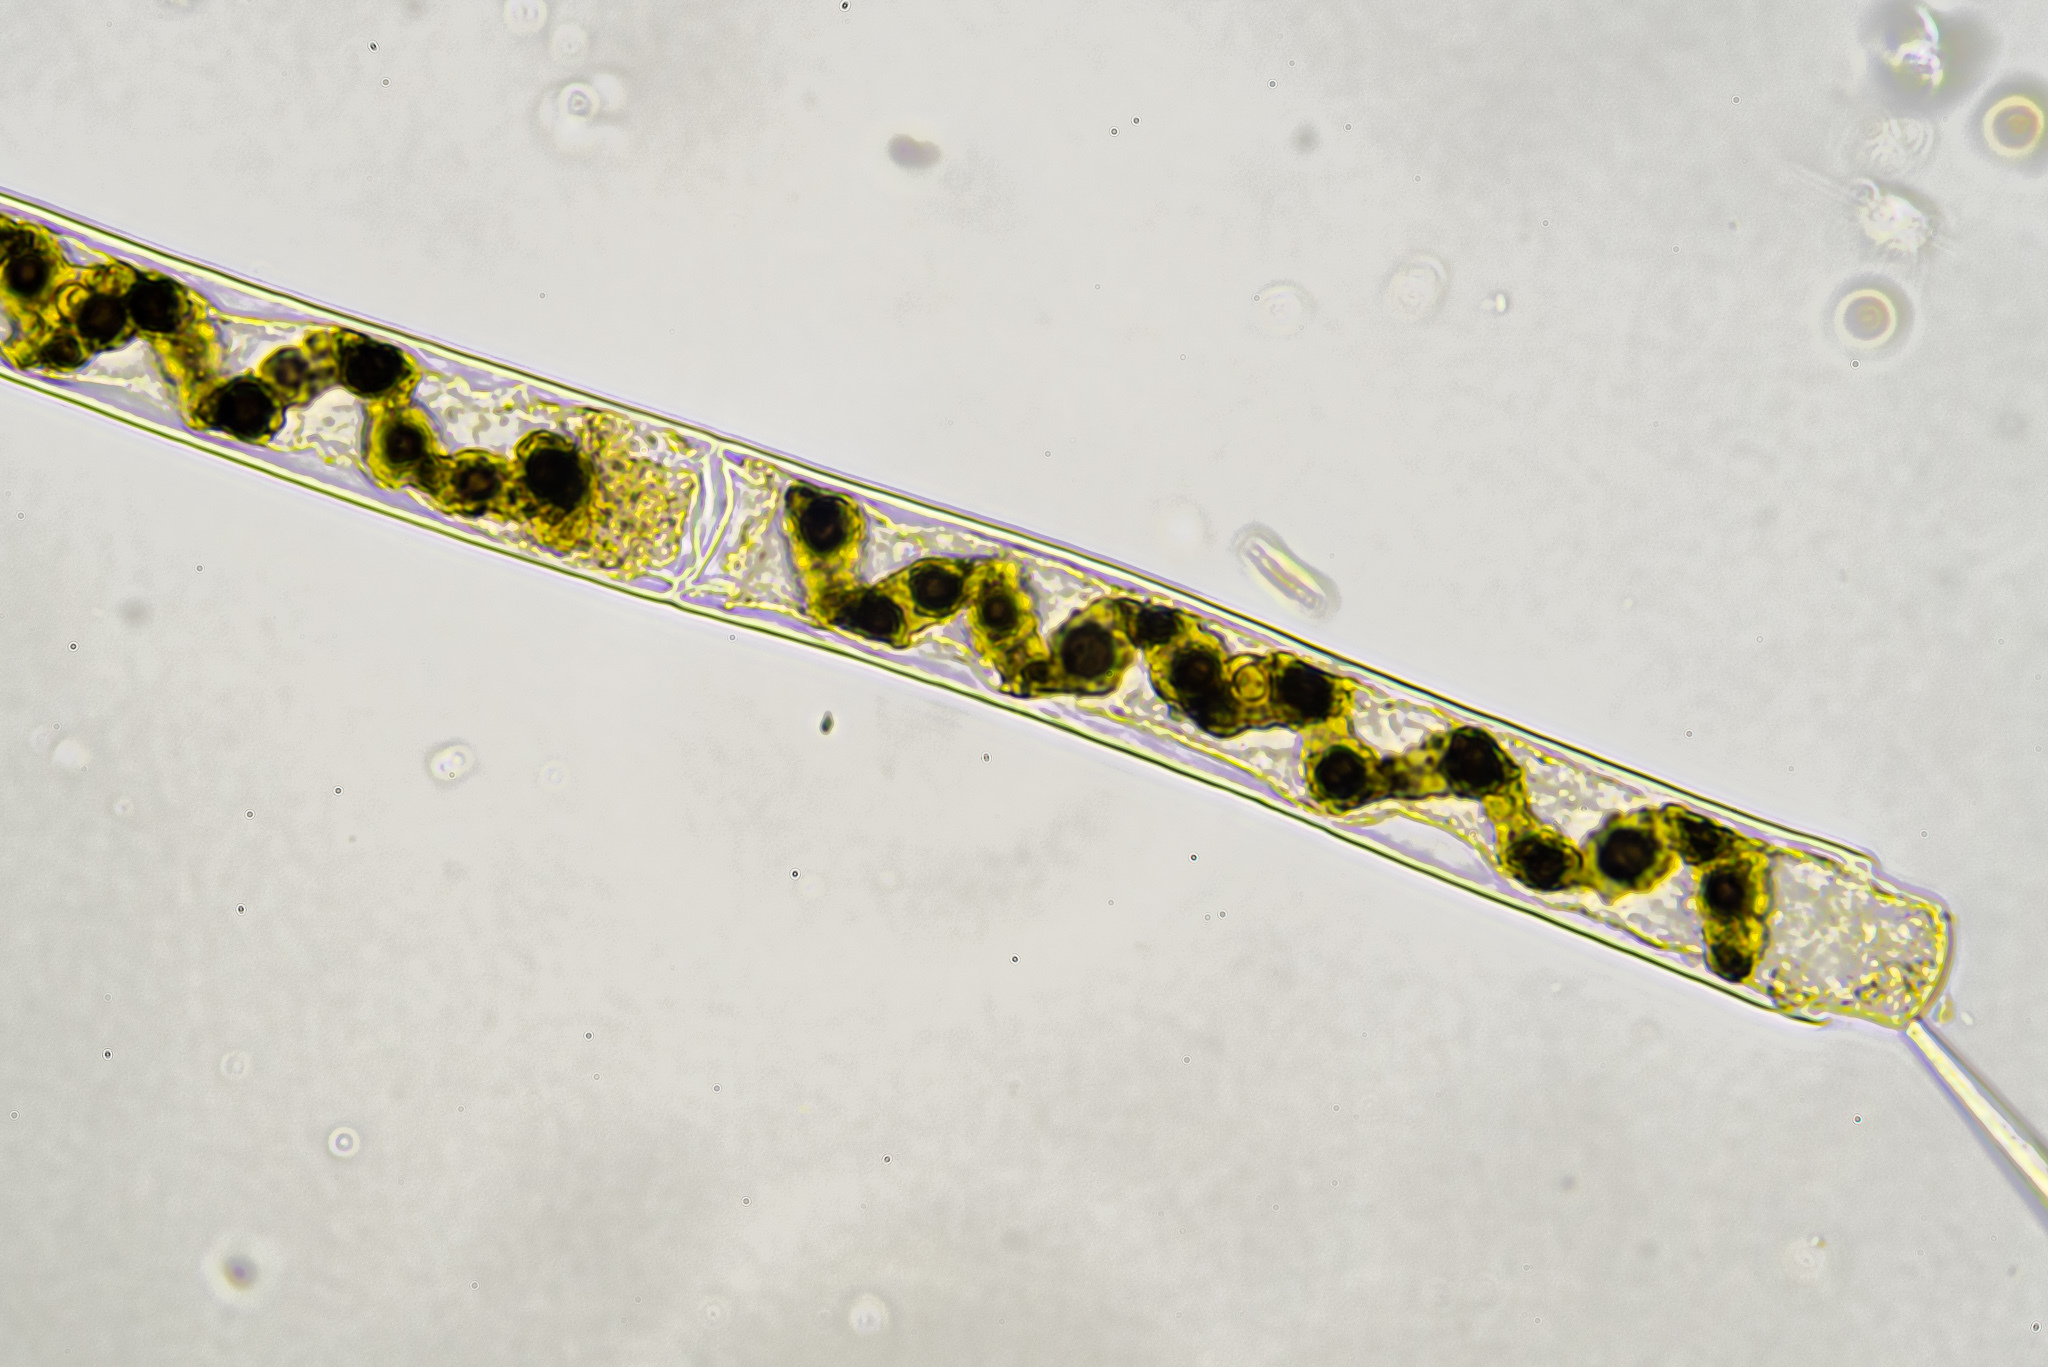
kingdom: Plantae
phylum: Charophyta
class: Zygnematophyceae
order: Zygnematales
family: Zygnemataceae
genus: Spirogyra
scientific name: Spirogyra
